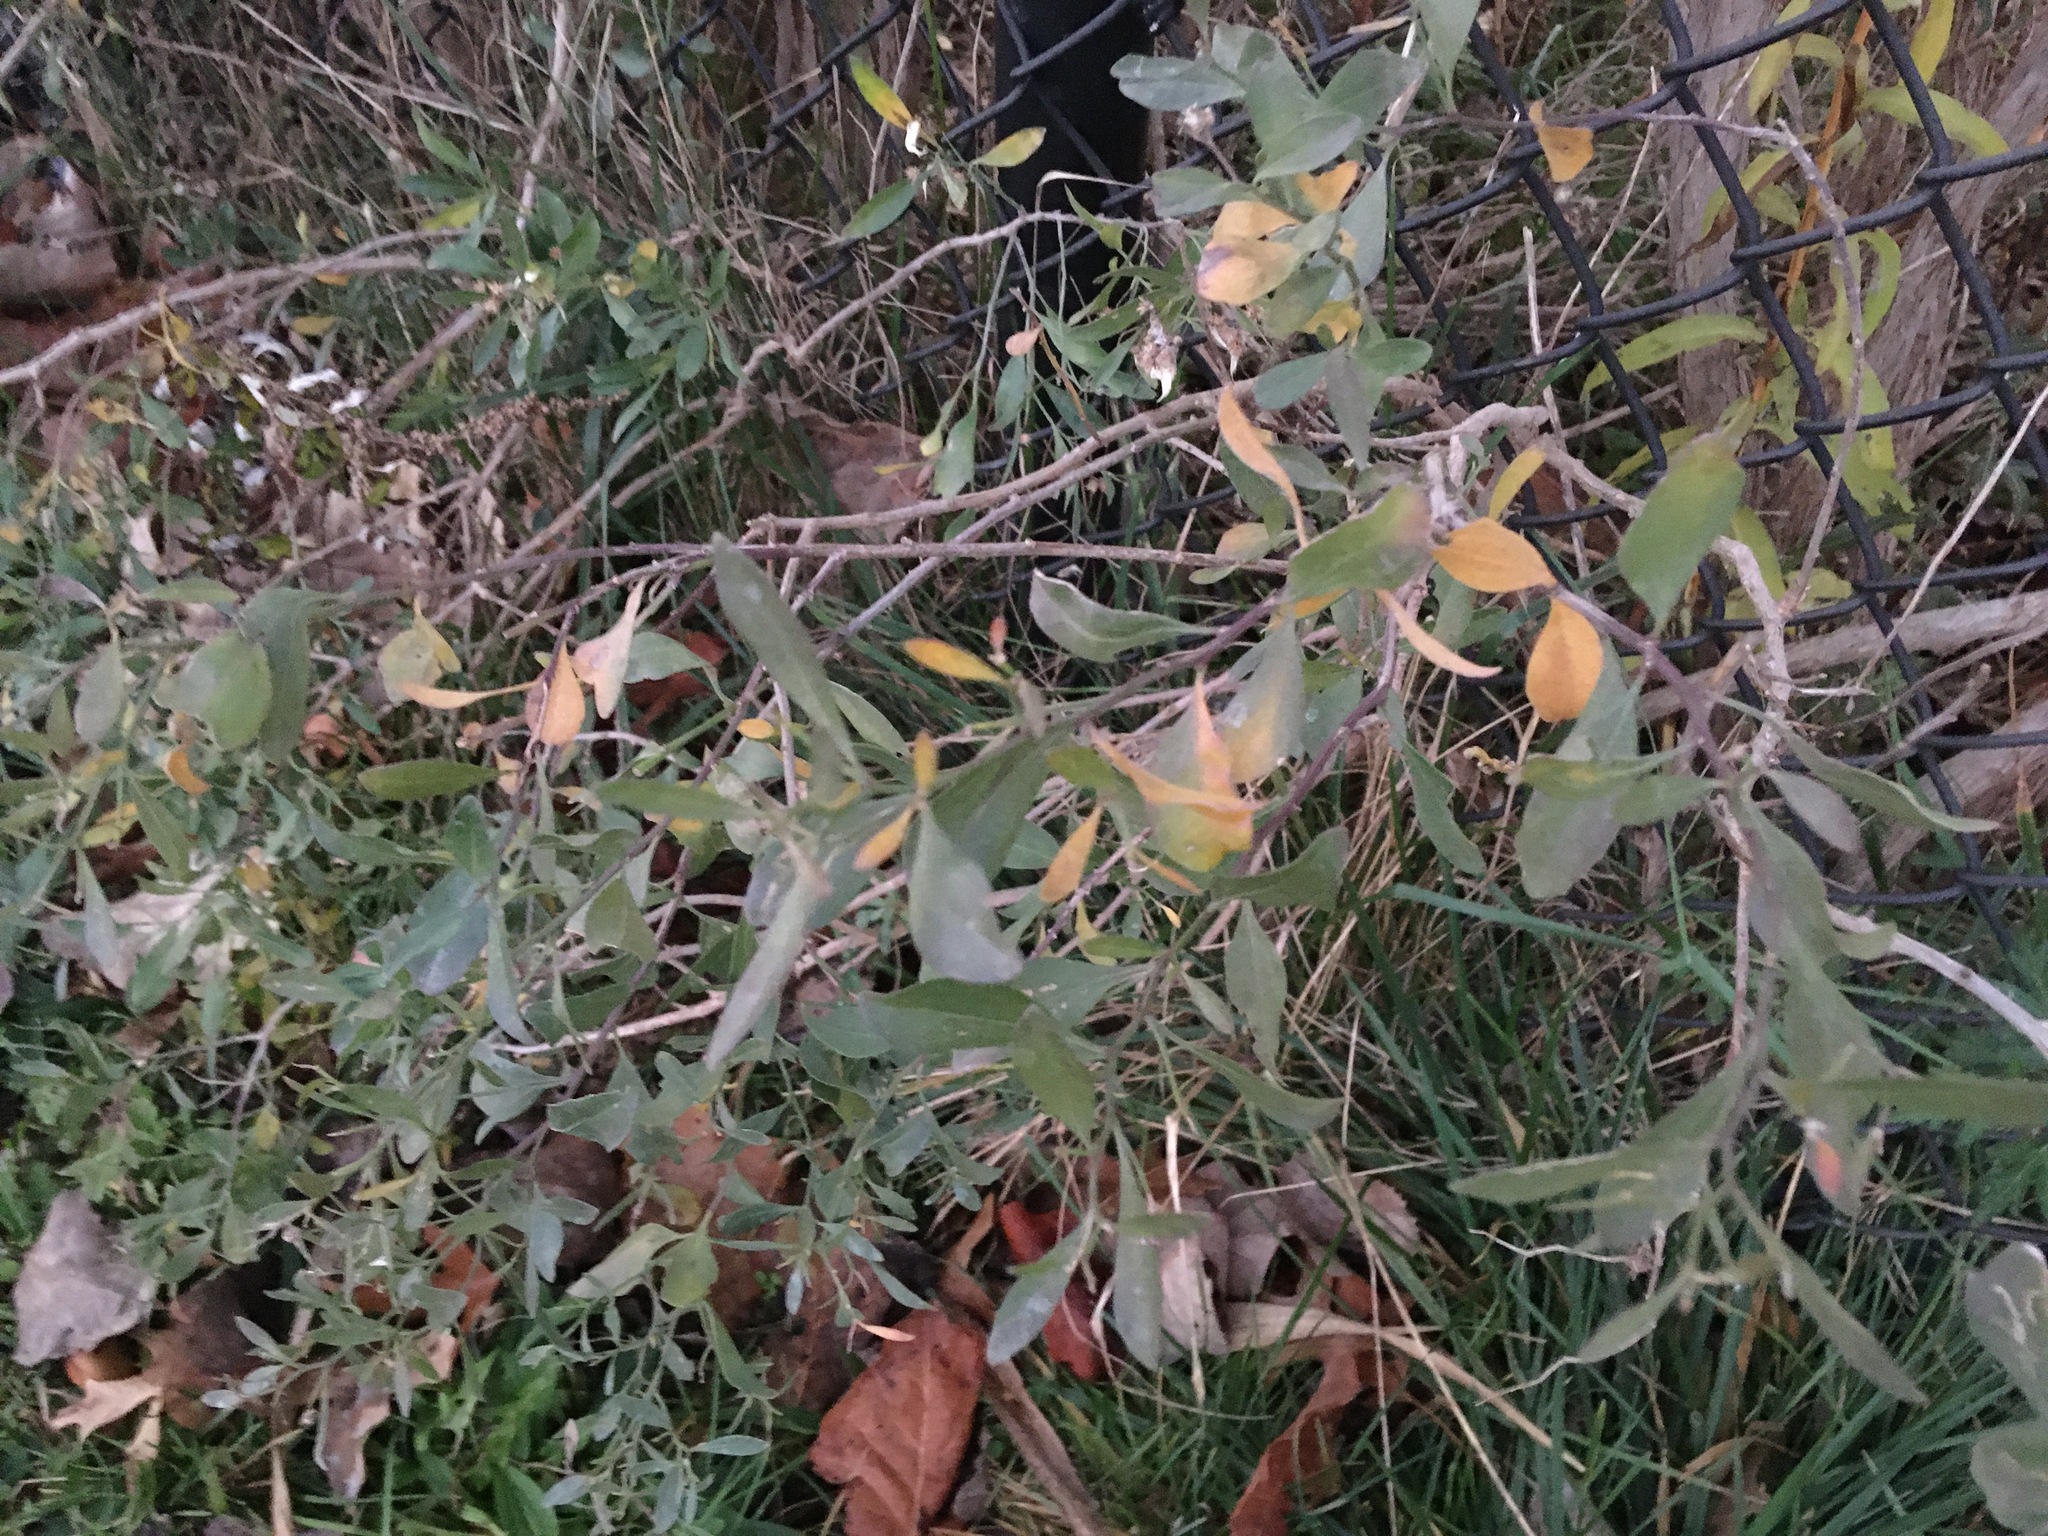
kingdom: Plantae
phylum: Tracheophyta
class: Magnoliopsida
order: Asterales
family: Asteraceae
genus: Baccharis
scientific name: Baccharis halimifolia
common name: Eastern baccharis
